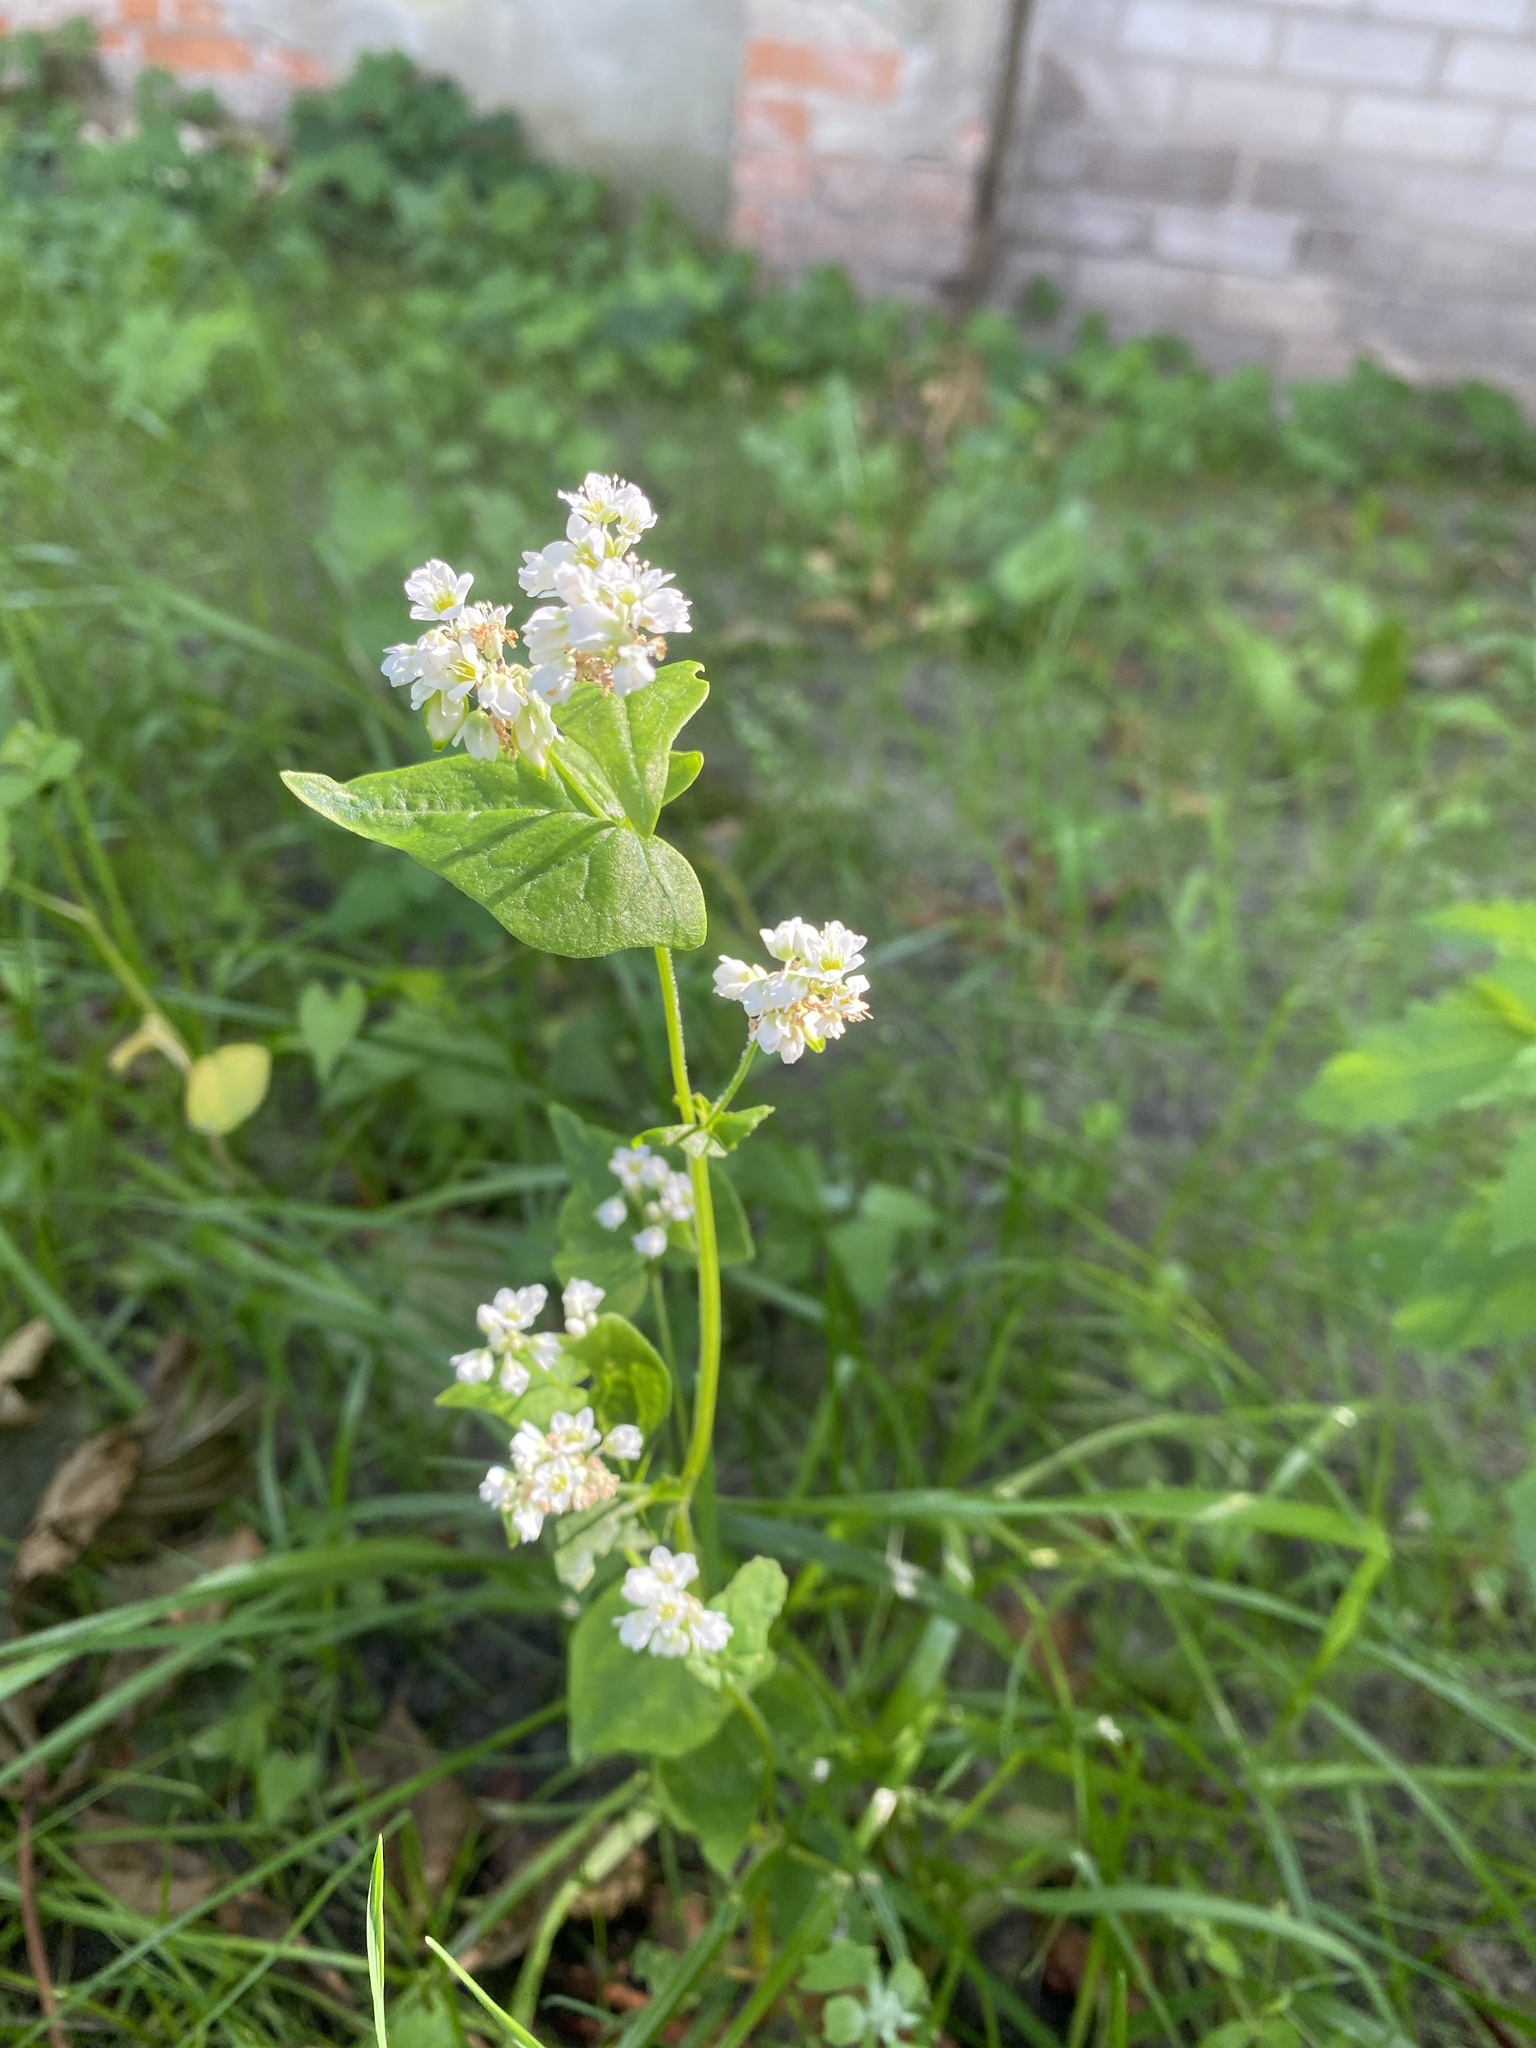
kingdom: Plantae
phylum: Tracheophyta
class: Magnoliopsida
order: Caryophyllales
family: Polygonaceae
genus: Fagopyrum
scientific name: Fagopyrum esculentum
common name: Buckwheat
